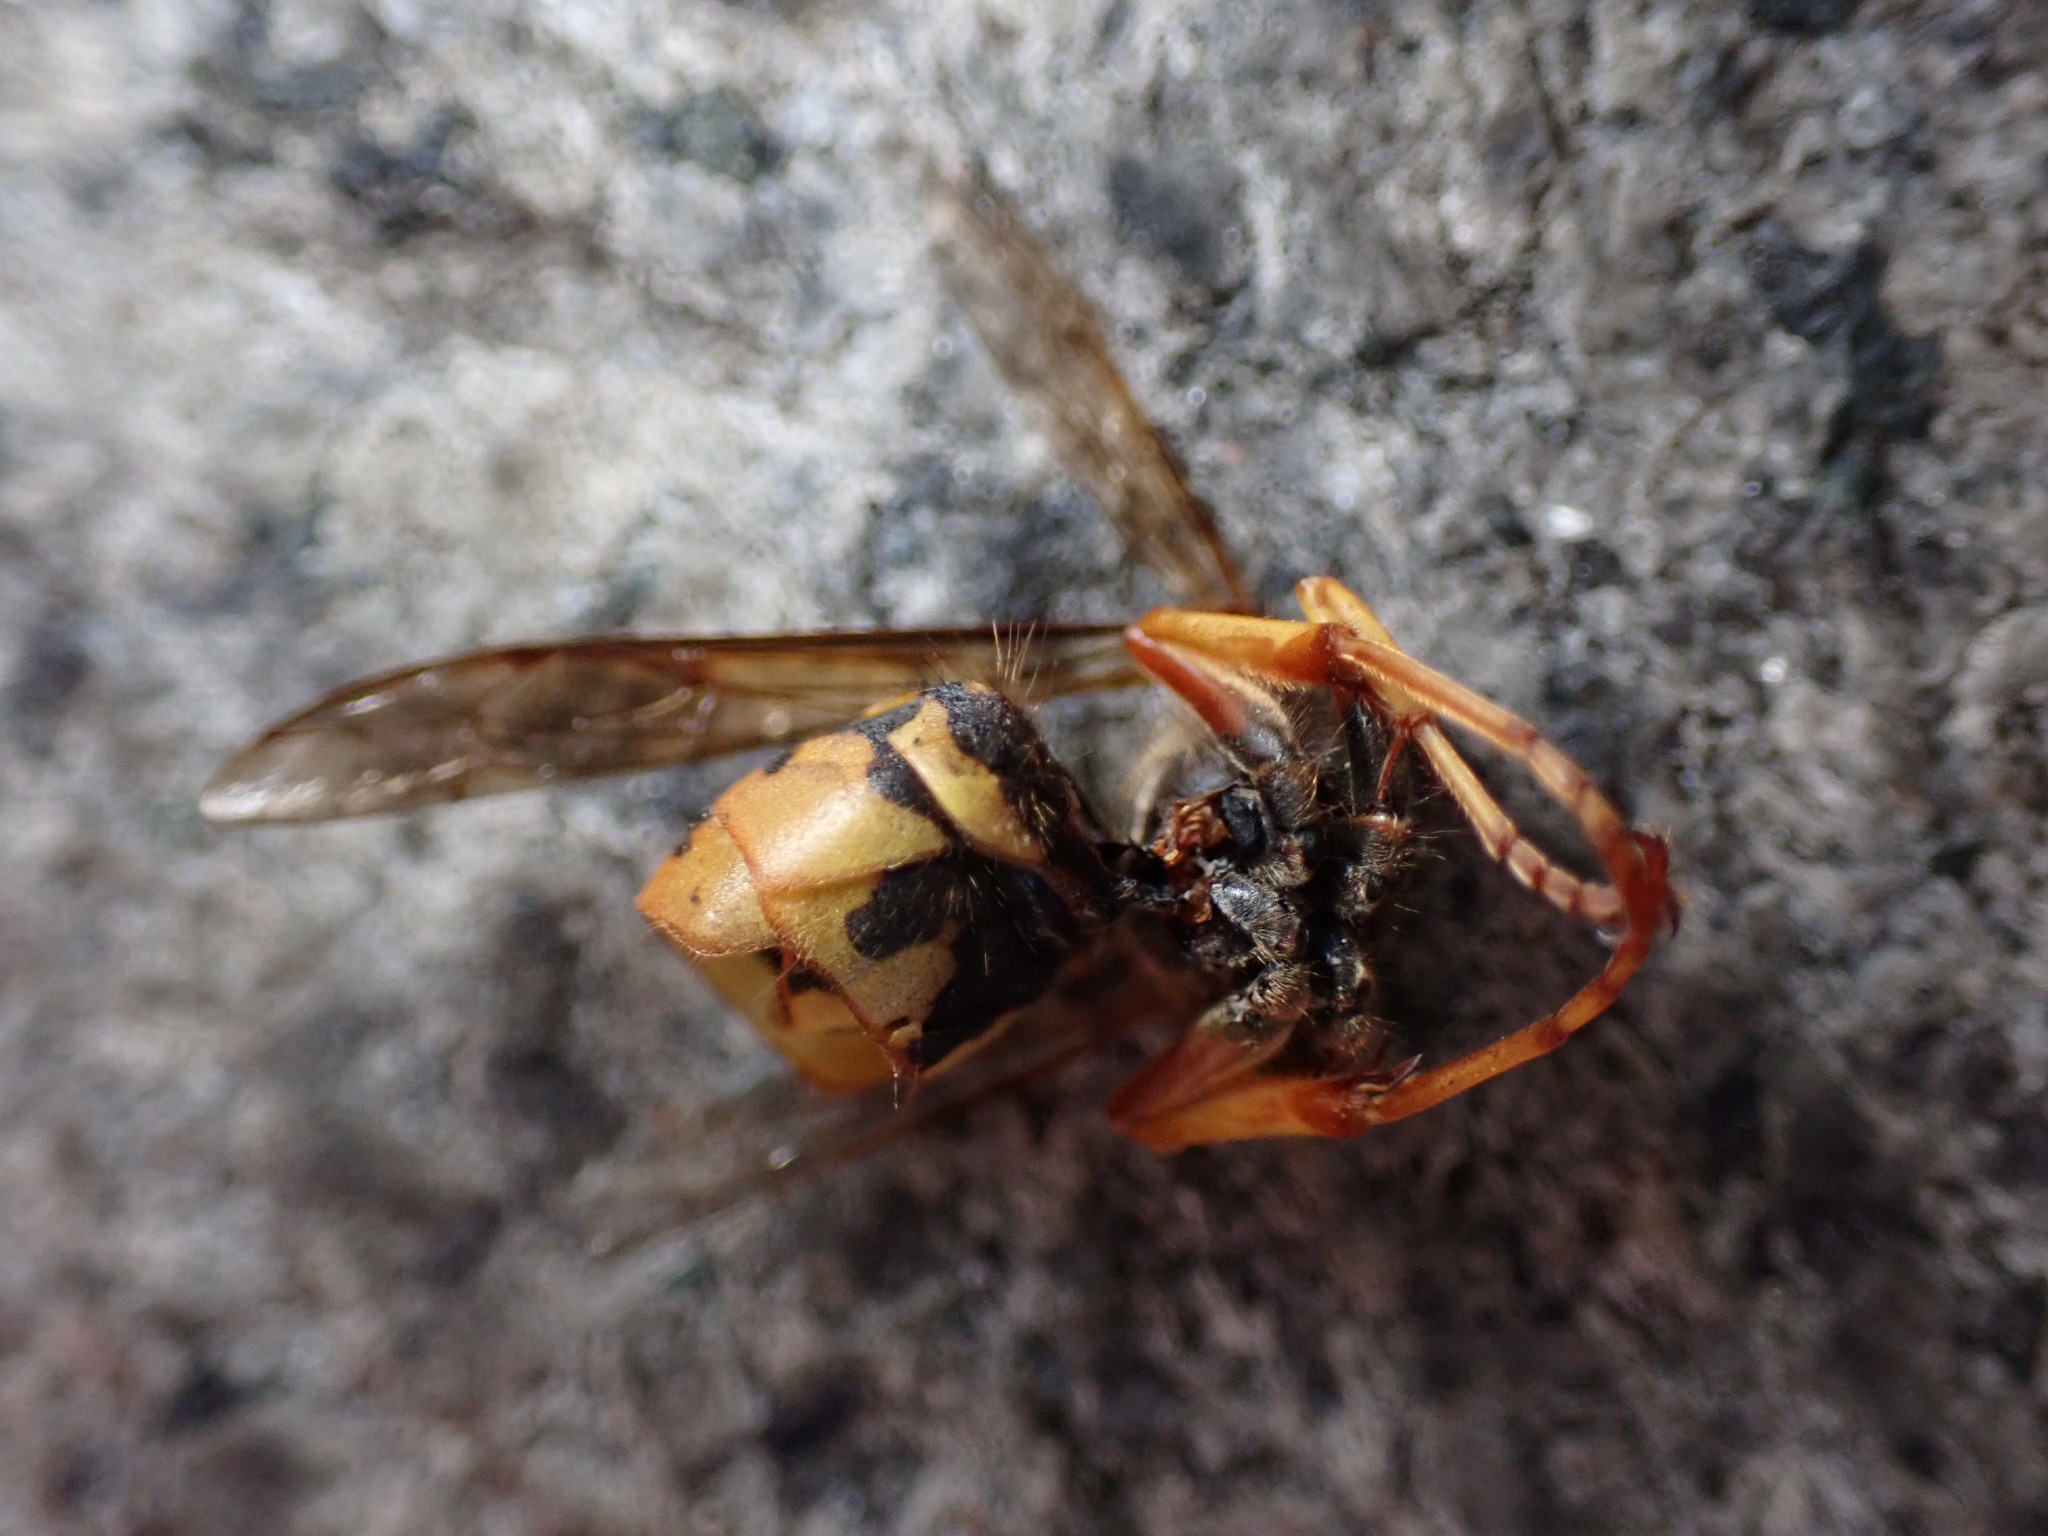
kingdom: Animalia
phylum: Arthropoda
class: Insecta
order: Hymenoptera
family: Vespidae
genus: Vespula
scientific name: Vespula maculifrons
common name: Eastern yellowjacket
